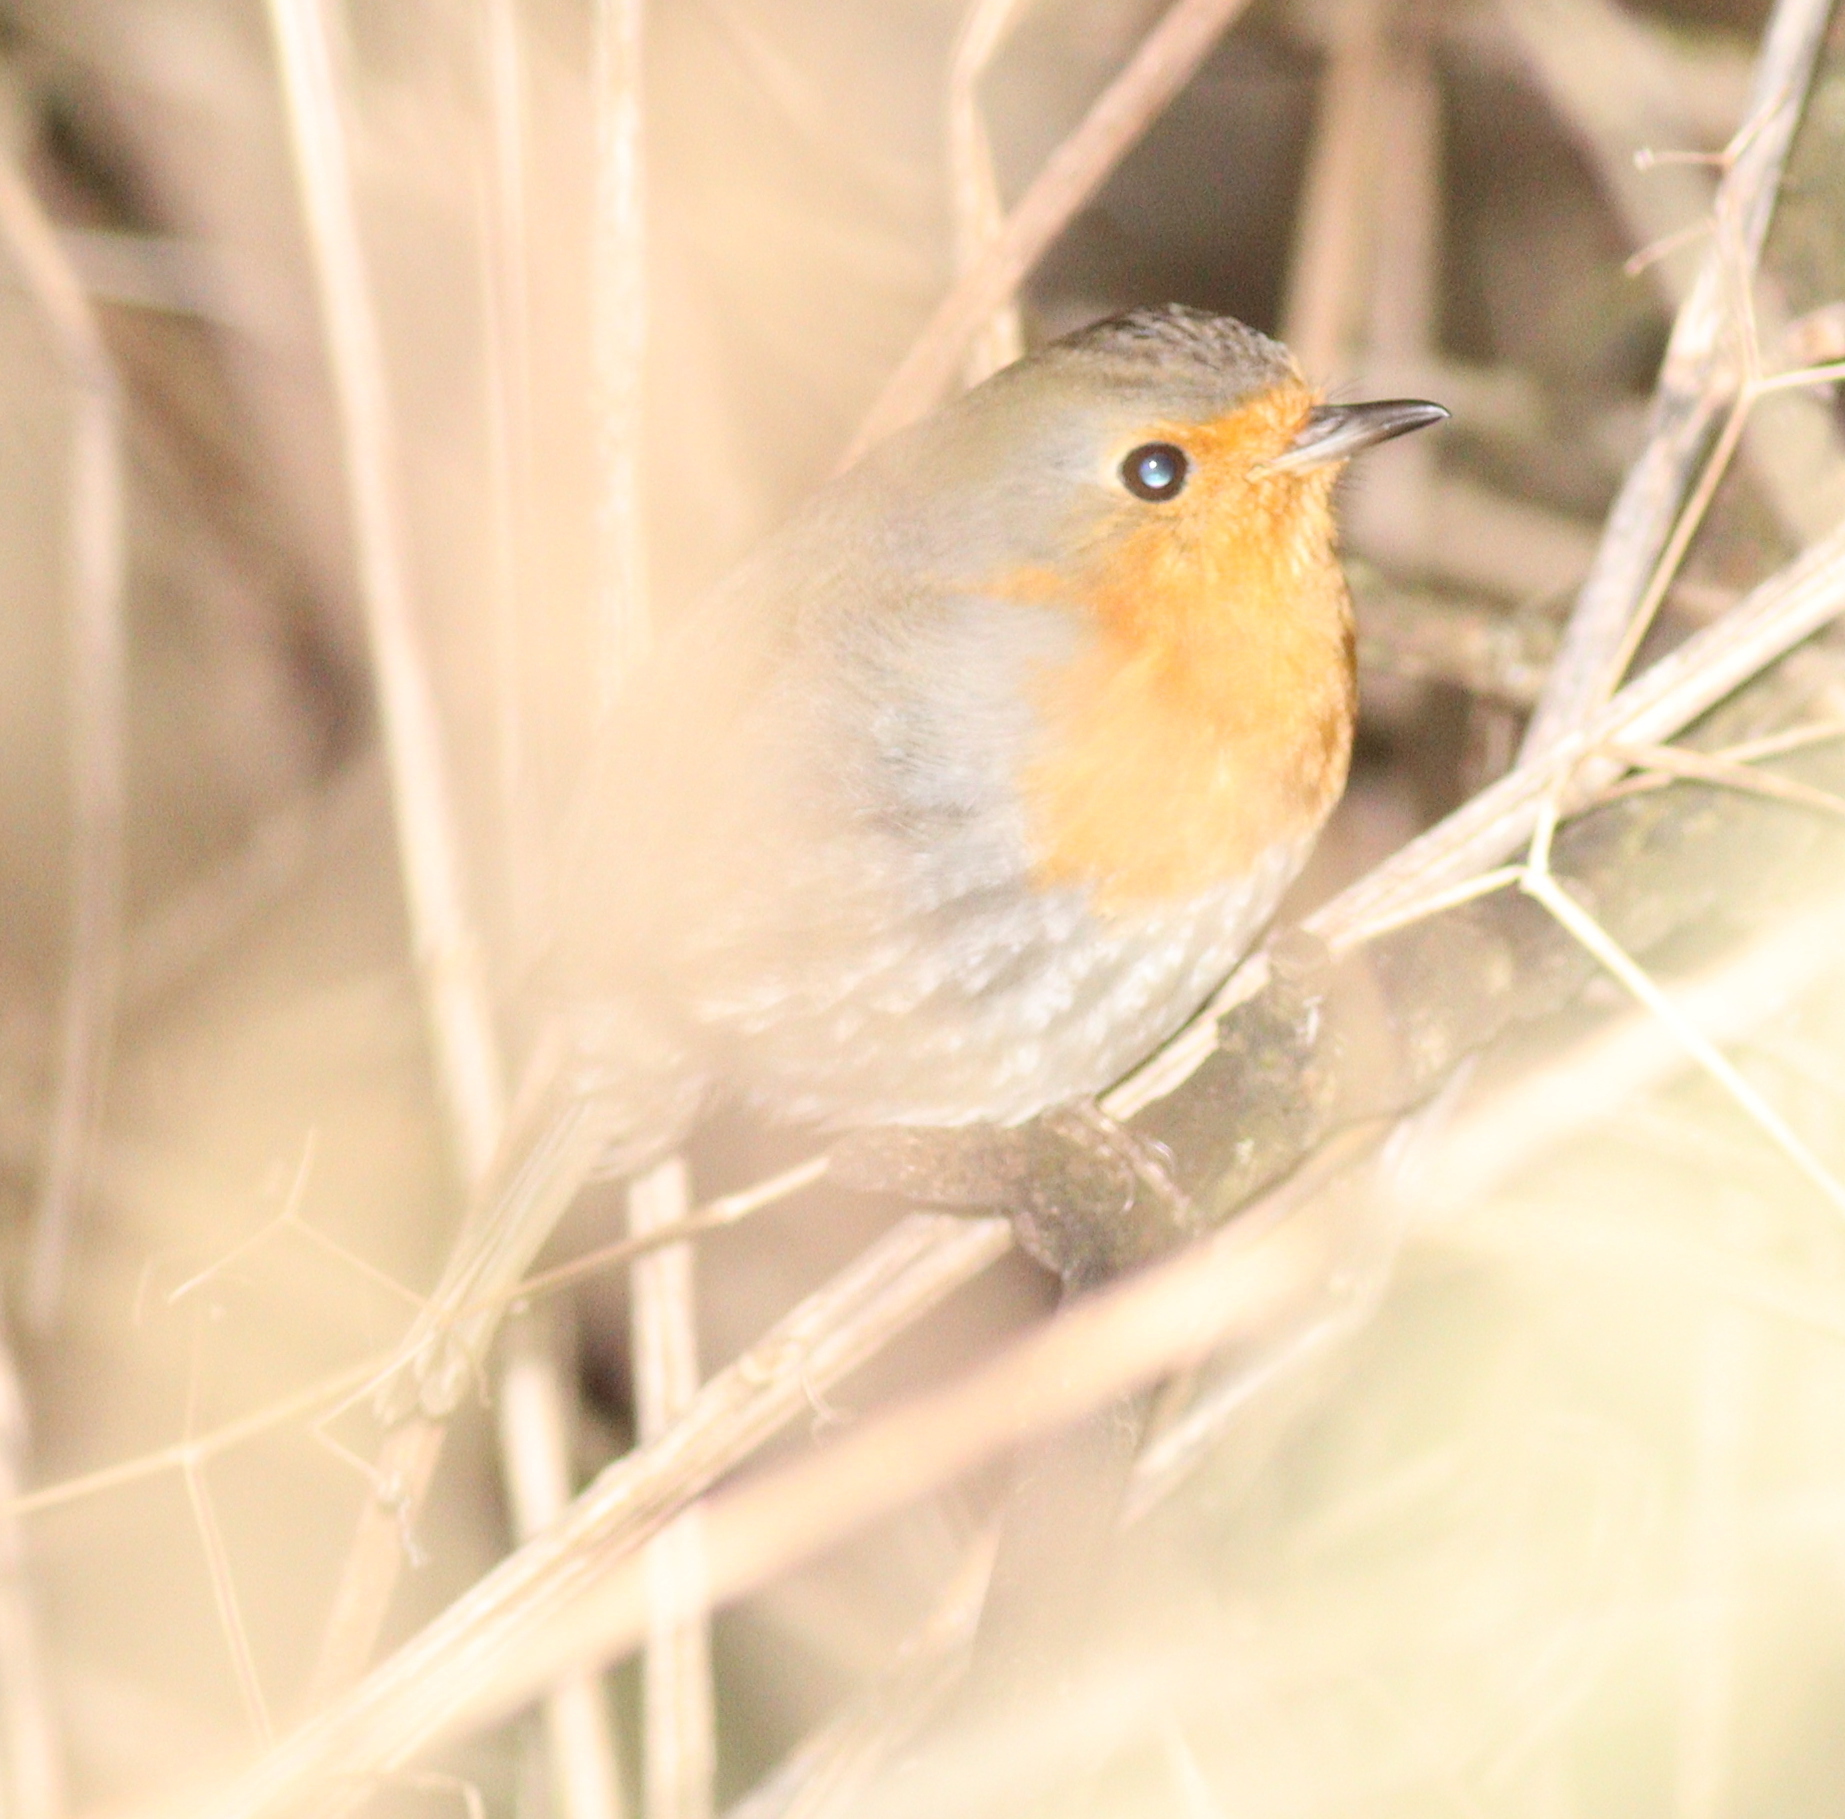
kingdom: Animalia
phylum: Chordata
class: Aves
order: Passeriformes
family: Muscicapidae
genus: Erithacus
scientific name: Erithacus rubecula
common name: European robin
